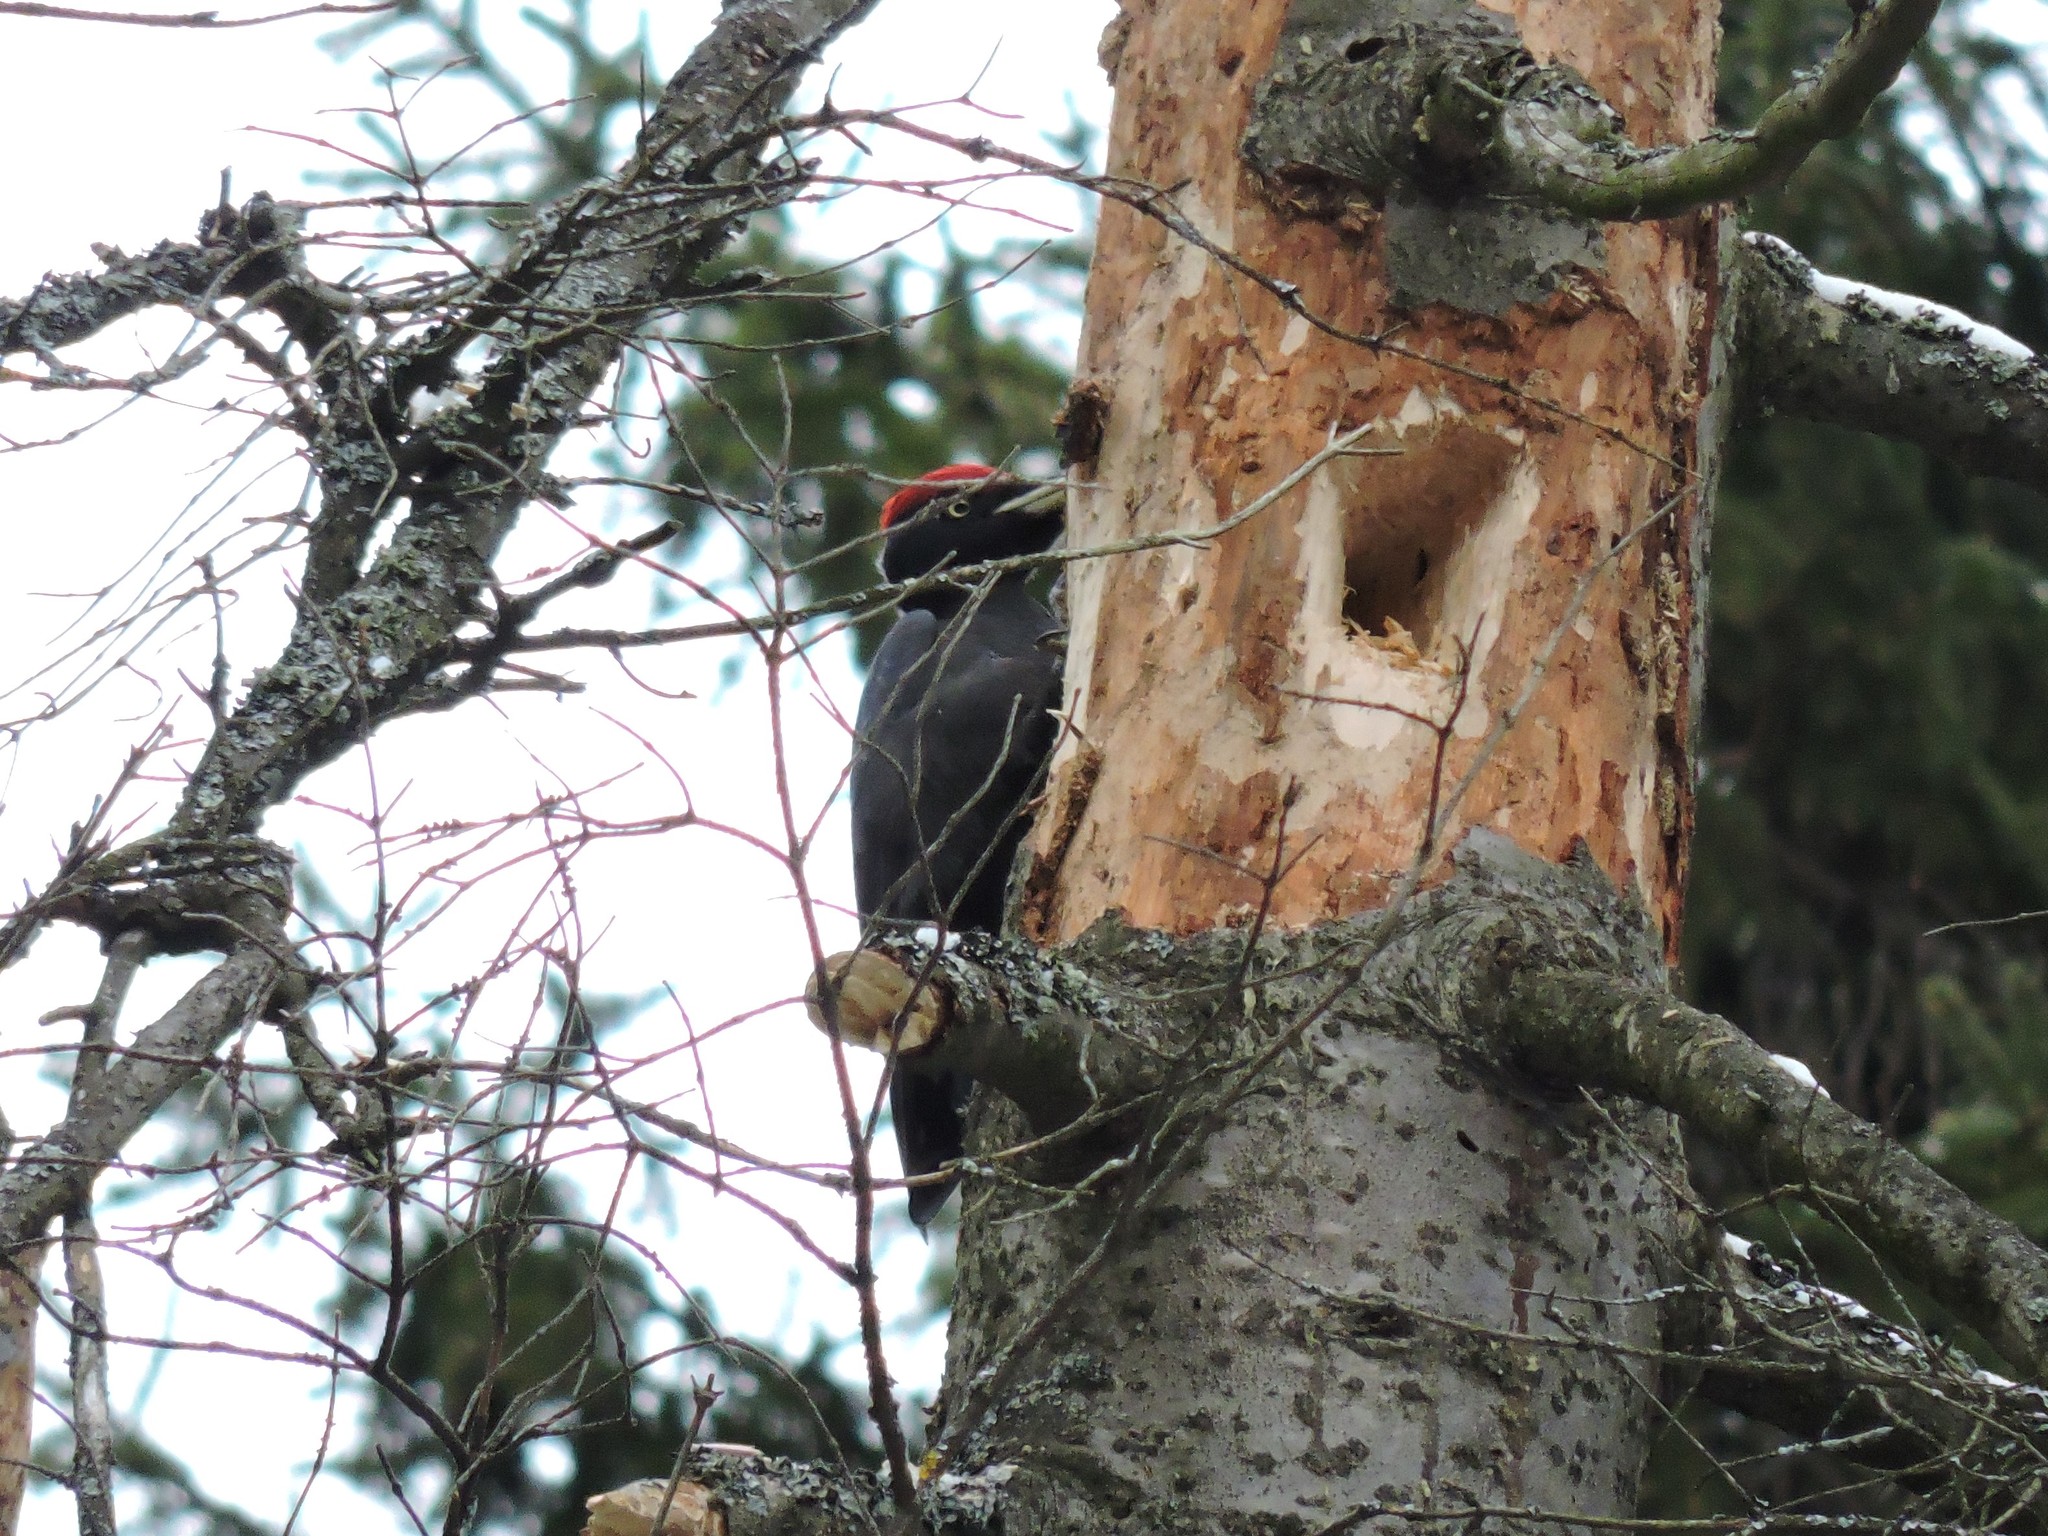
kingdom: Animalia
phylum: Chordata
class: Aves
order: Piciformes
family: Picidae
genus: Dryocopus
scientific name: Dryocopus martius
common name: Black woodpecker
